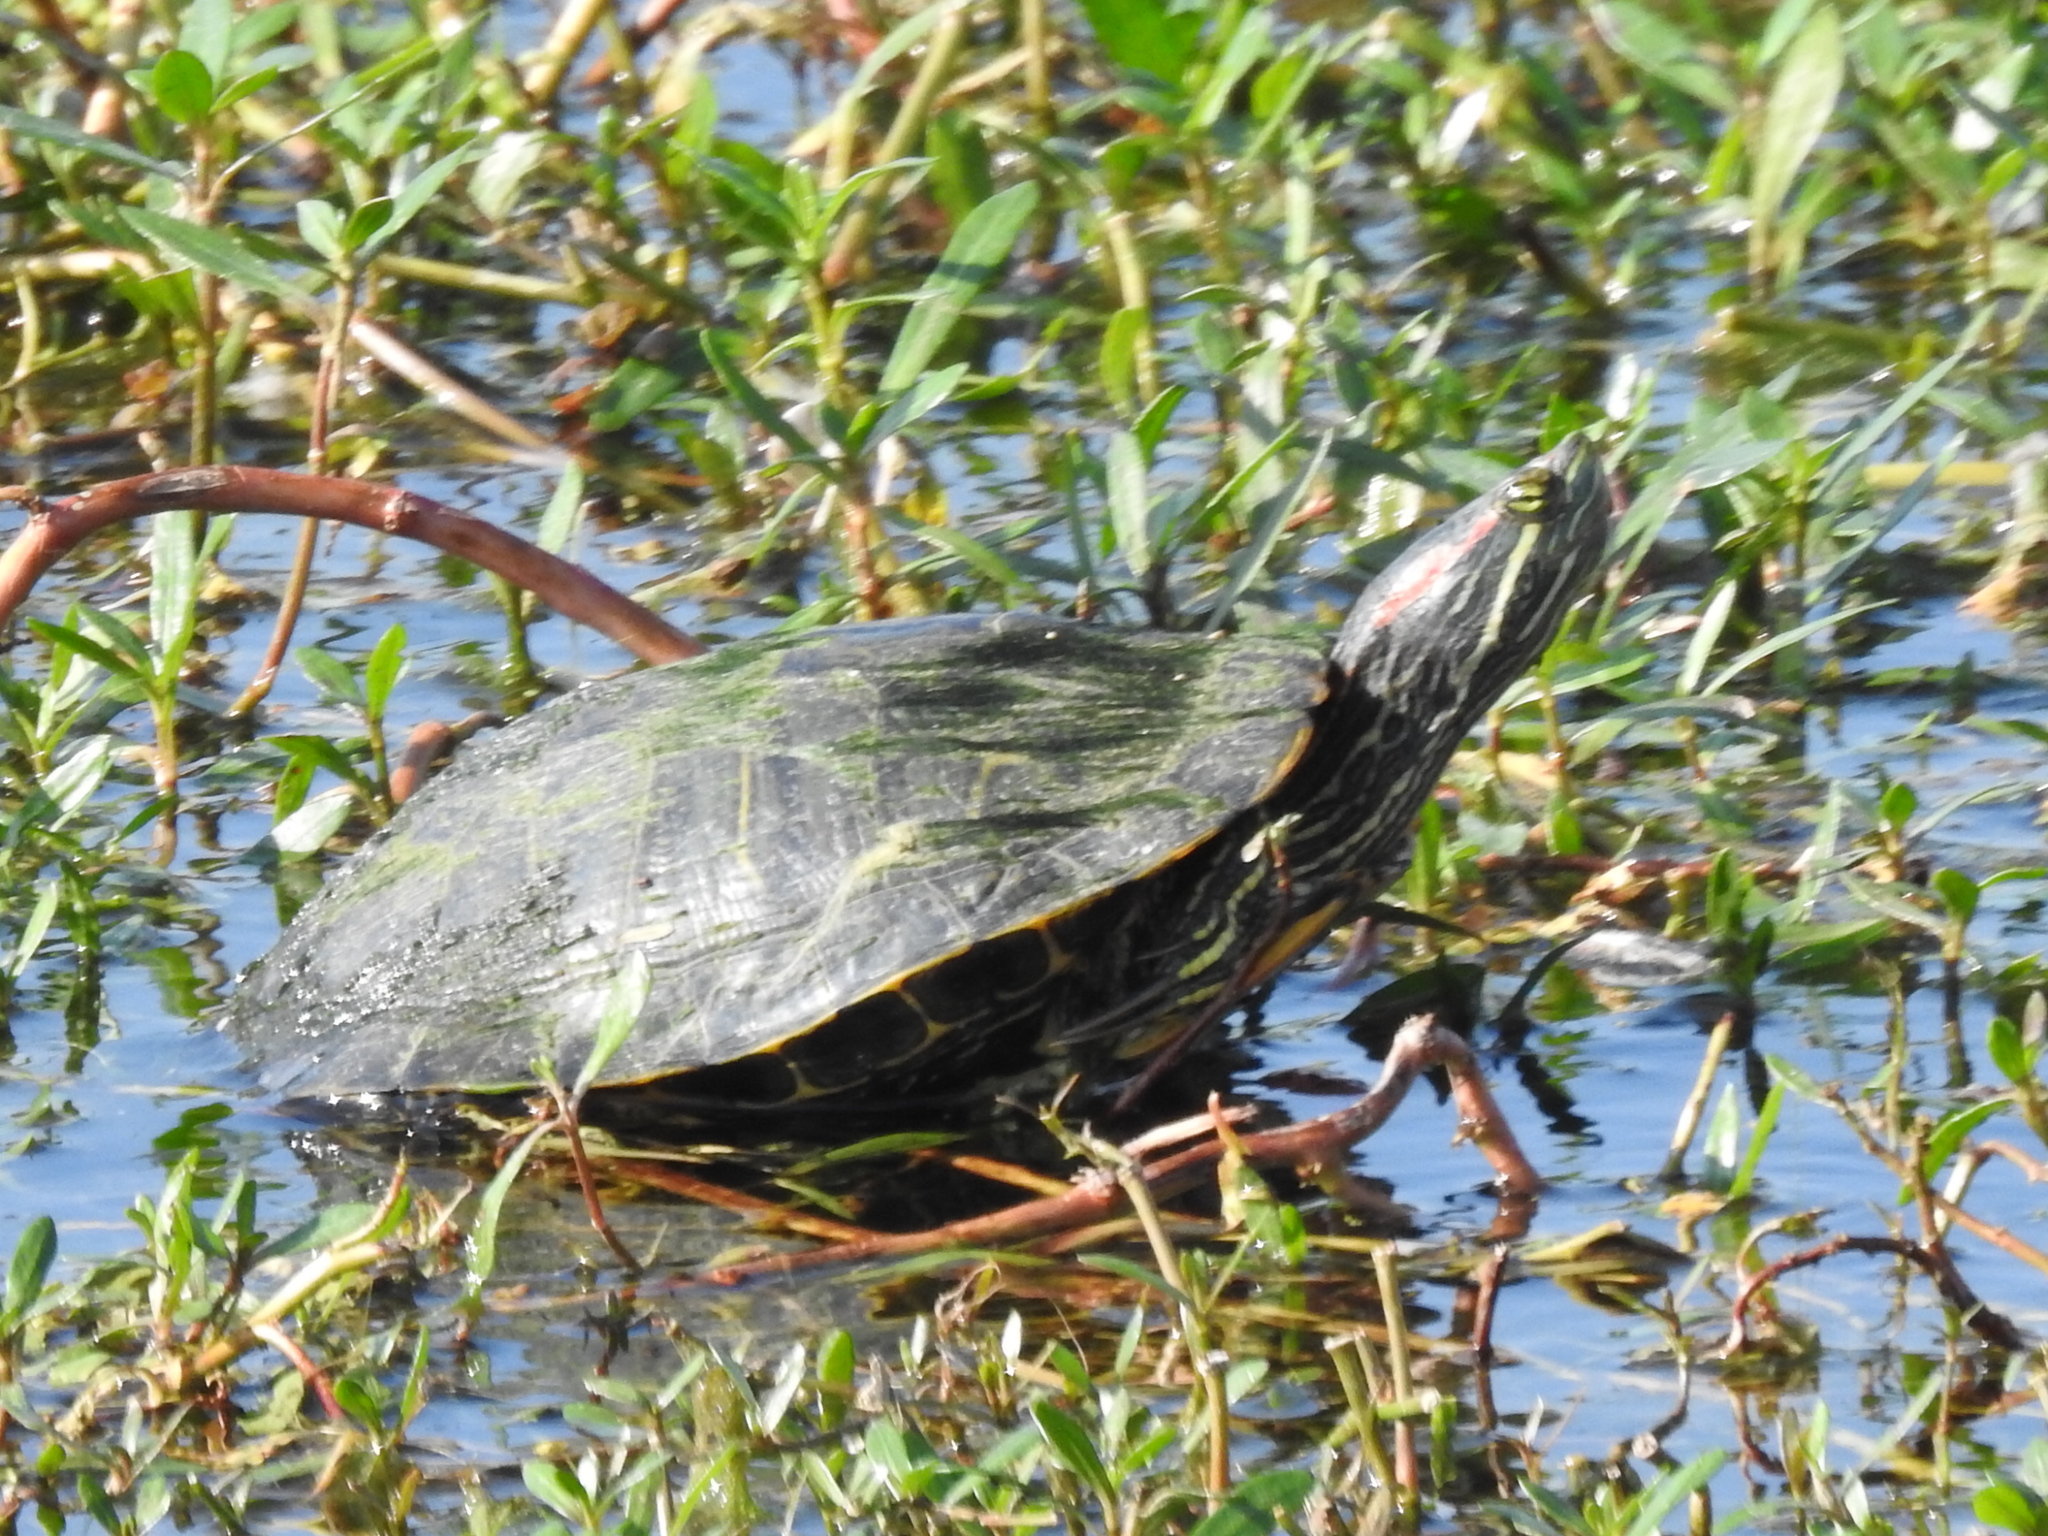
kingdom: Animalia
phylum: Chordata
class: Testudines
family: Emydidae
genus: Trachemys
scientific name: Trachemys scripta
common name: Slider
